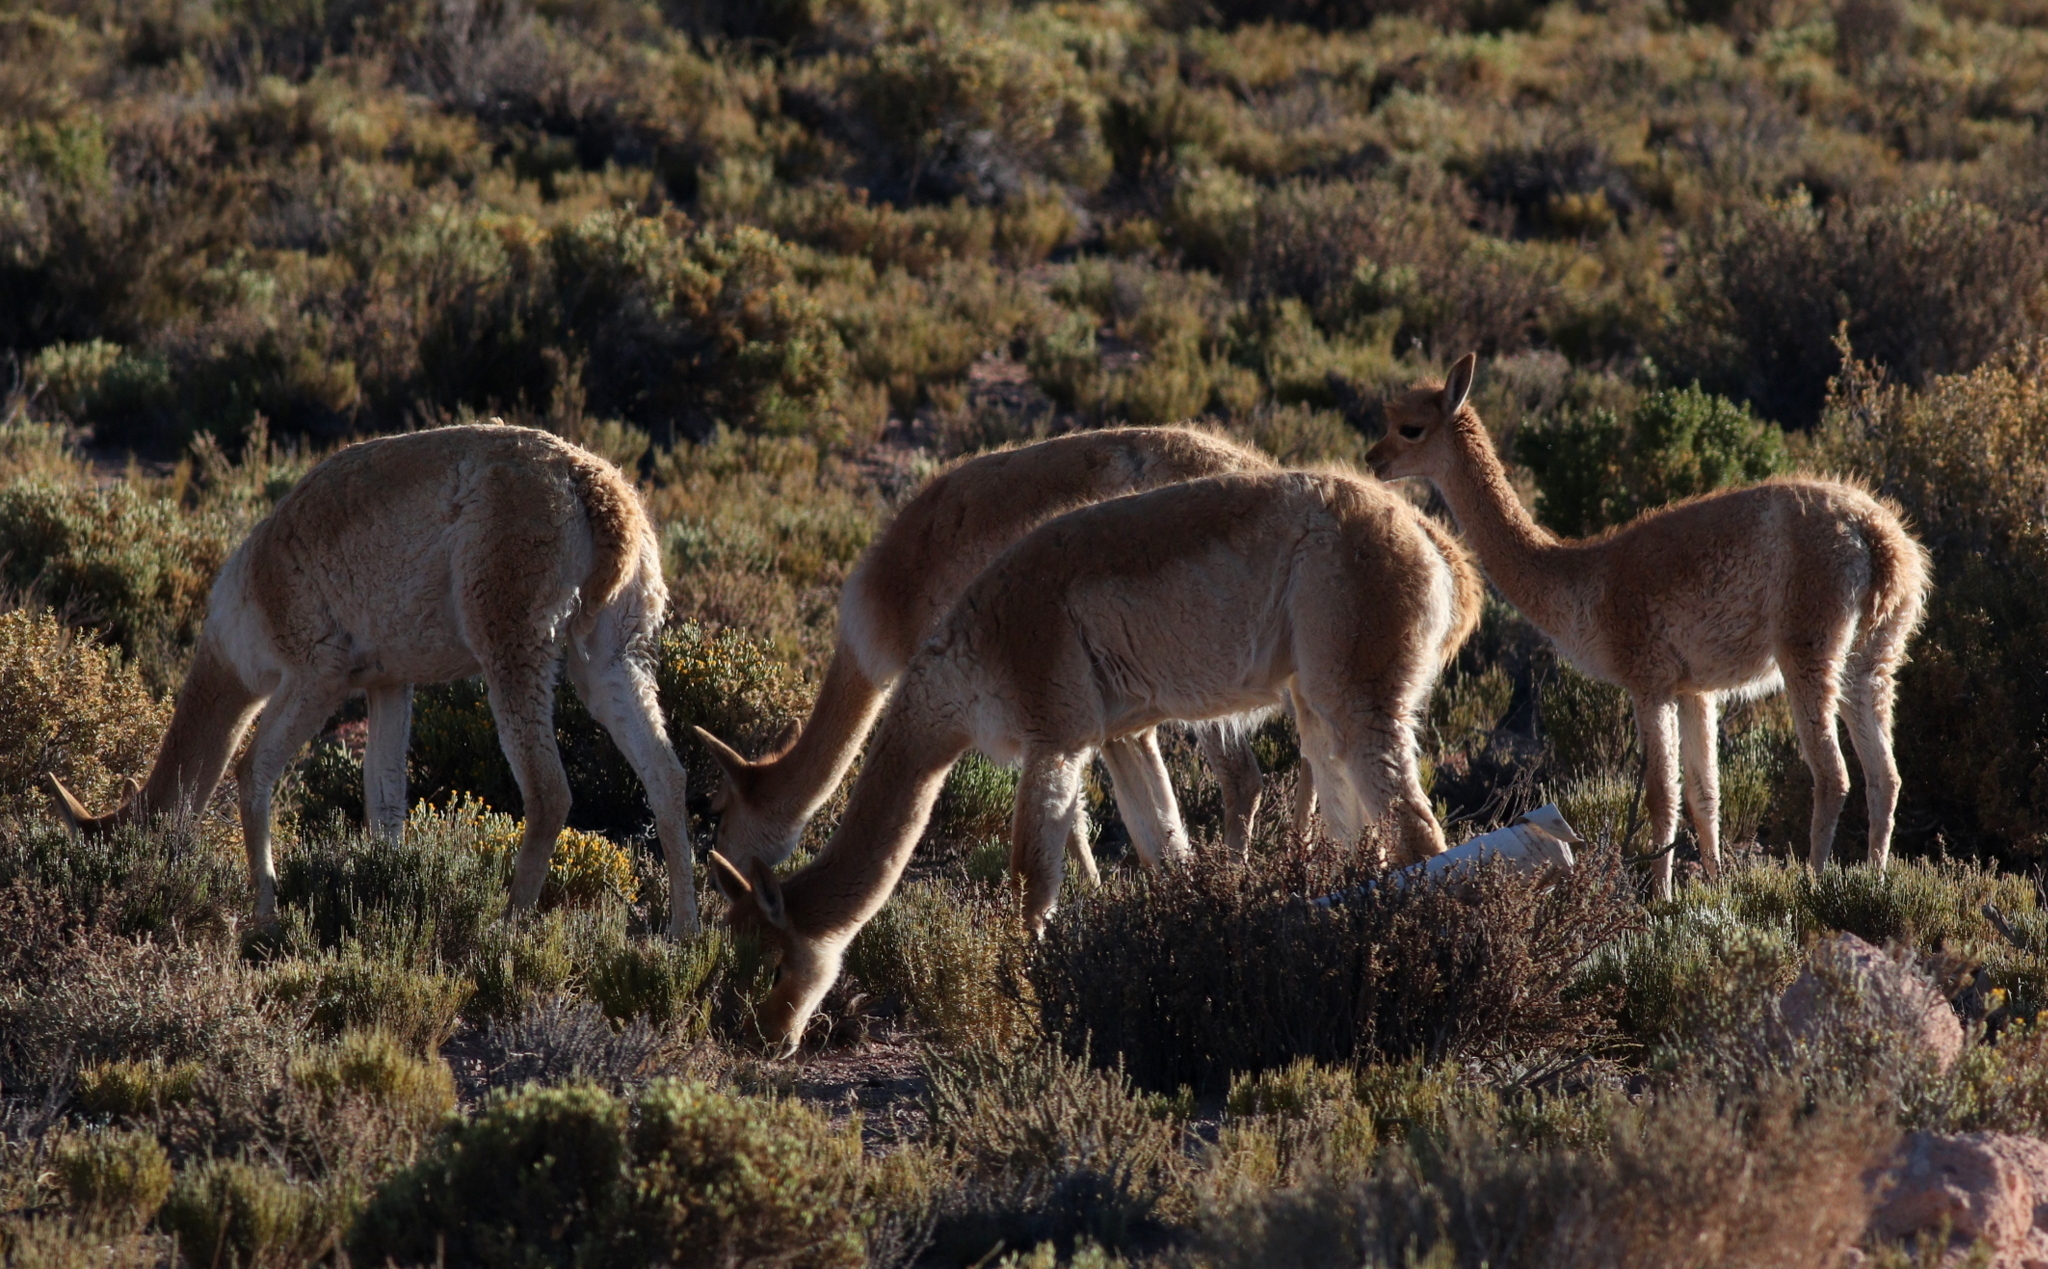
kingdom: Animalia
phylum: Chordata
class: Mammalia
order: Artiodactyla
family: Camelidae
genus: Vicugna
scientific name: Vicugna vicugna
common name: Vicugna
